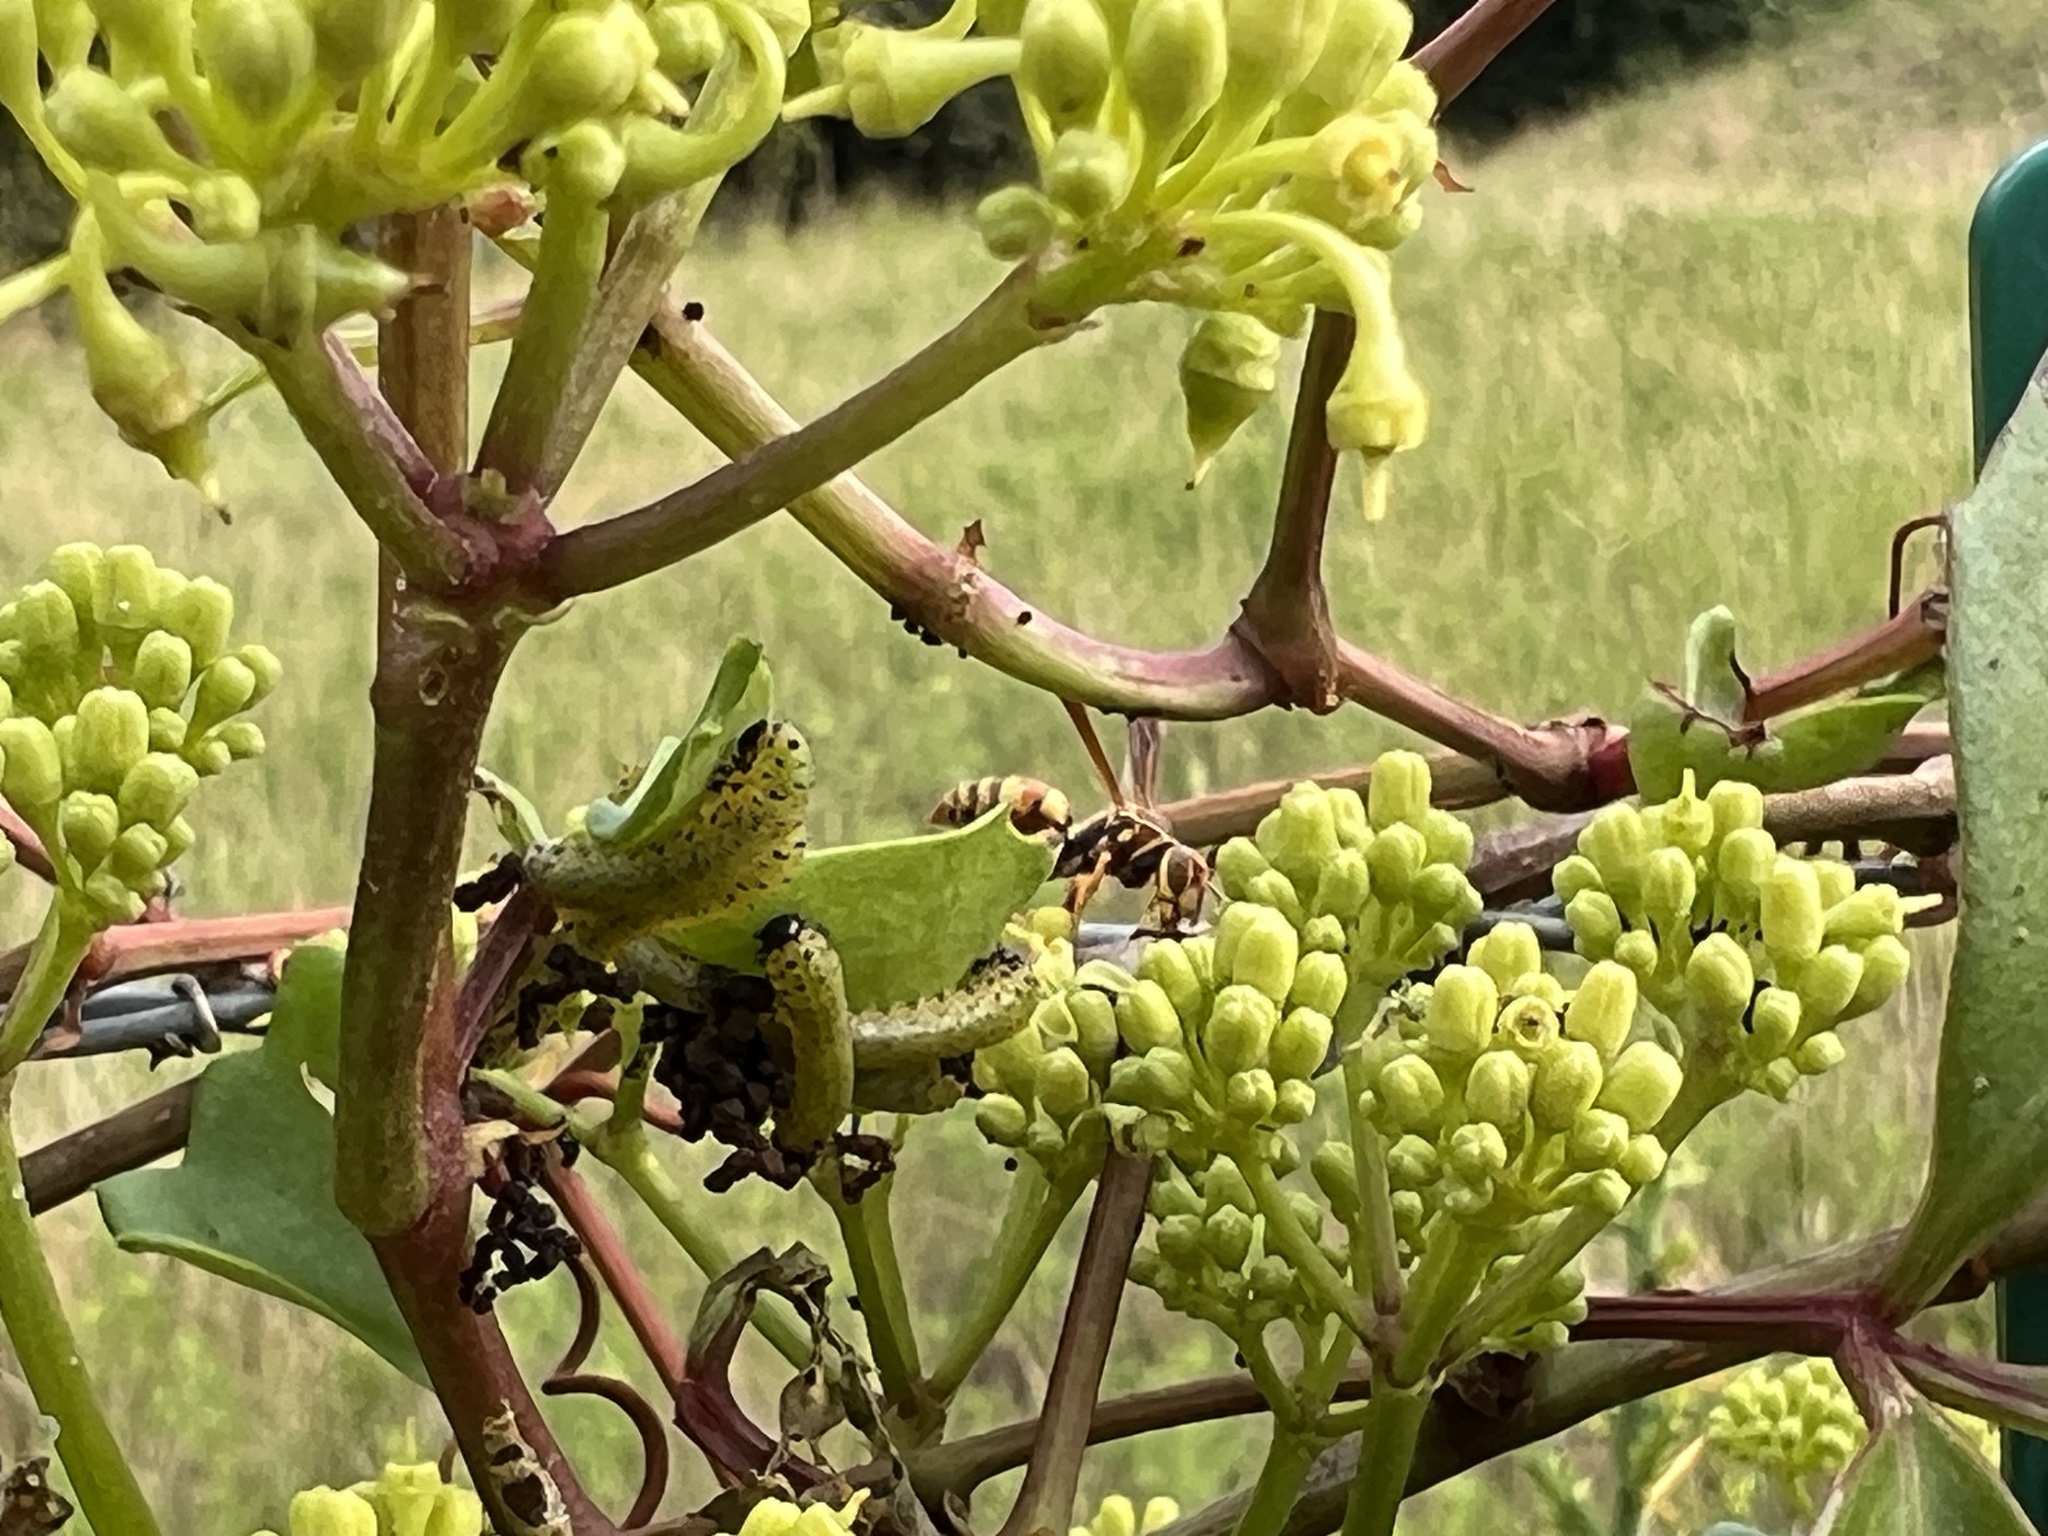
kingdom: Plantae
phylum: Tracheophyta
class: Magnoliopsida
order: Vitales
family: Vitaceae
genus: Cissus
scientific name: Cissus trifoliata
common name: Vine-sorrel
